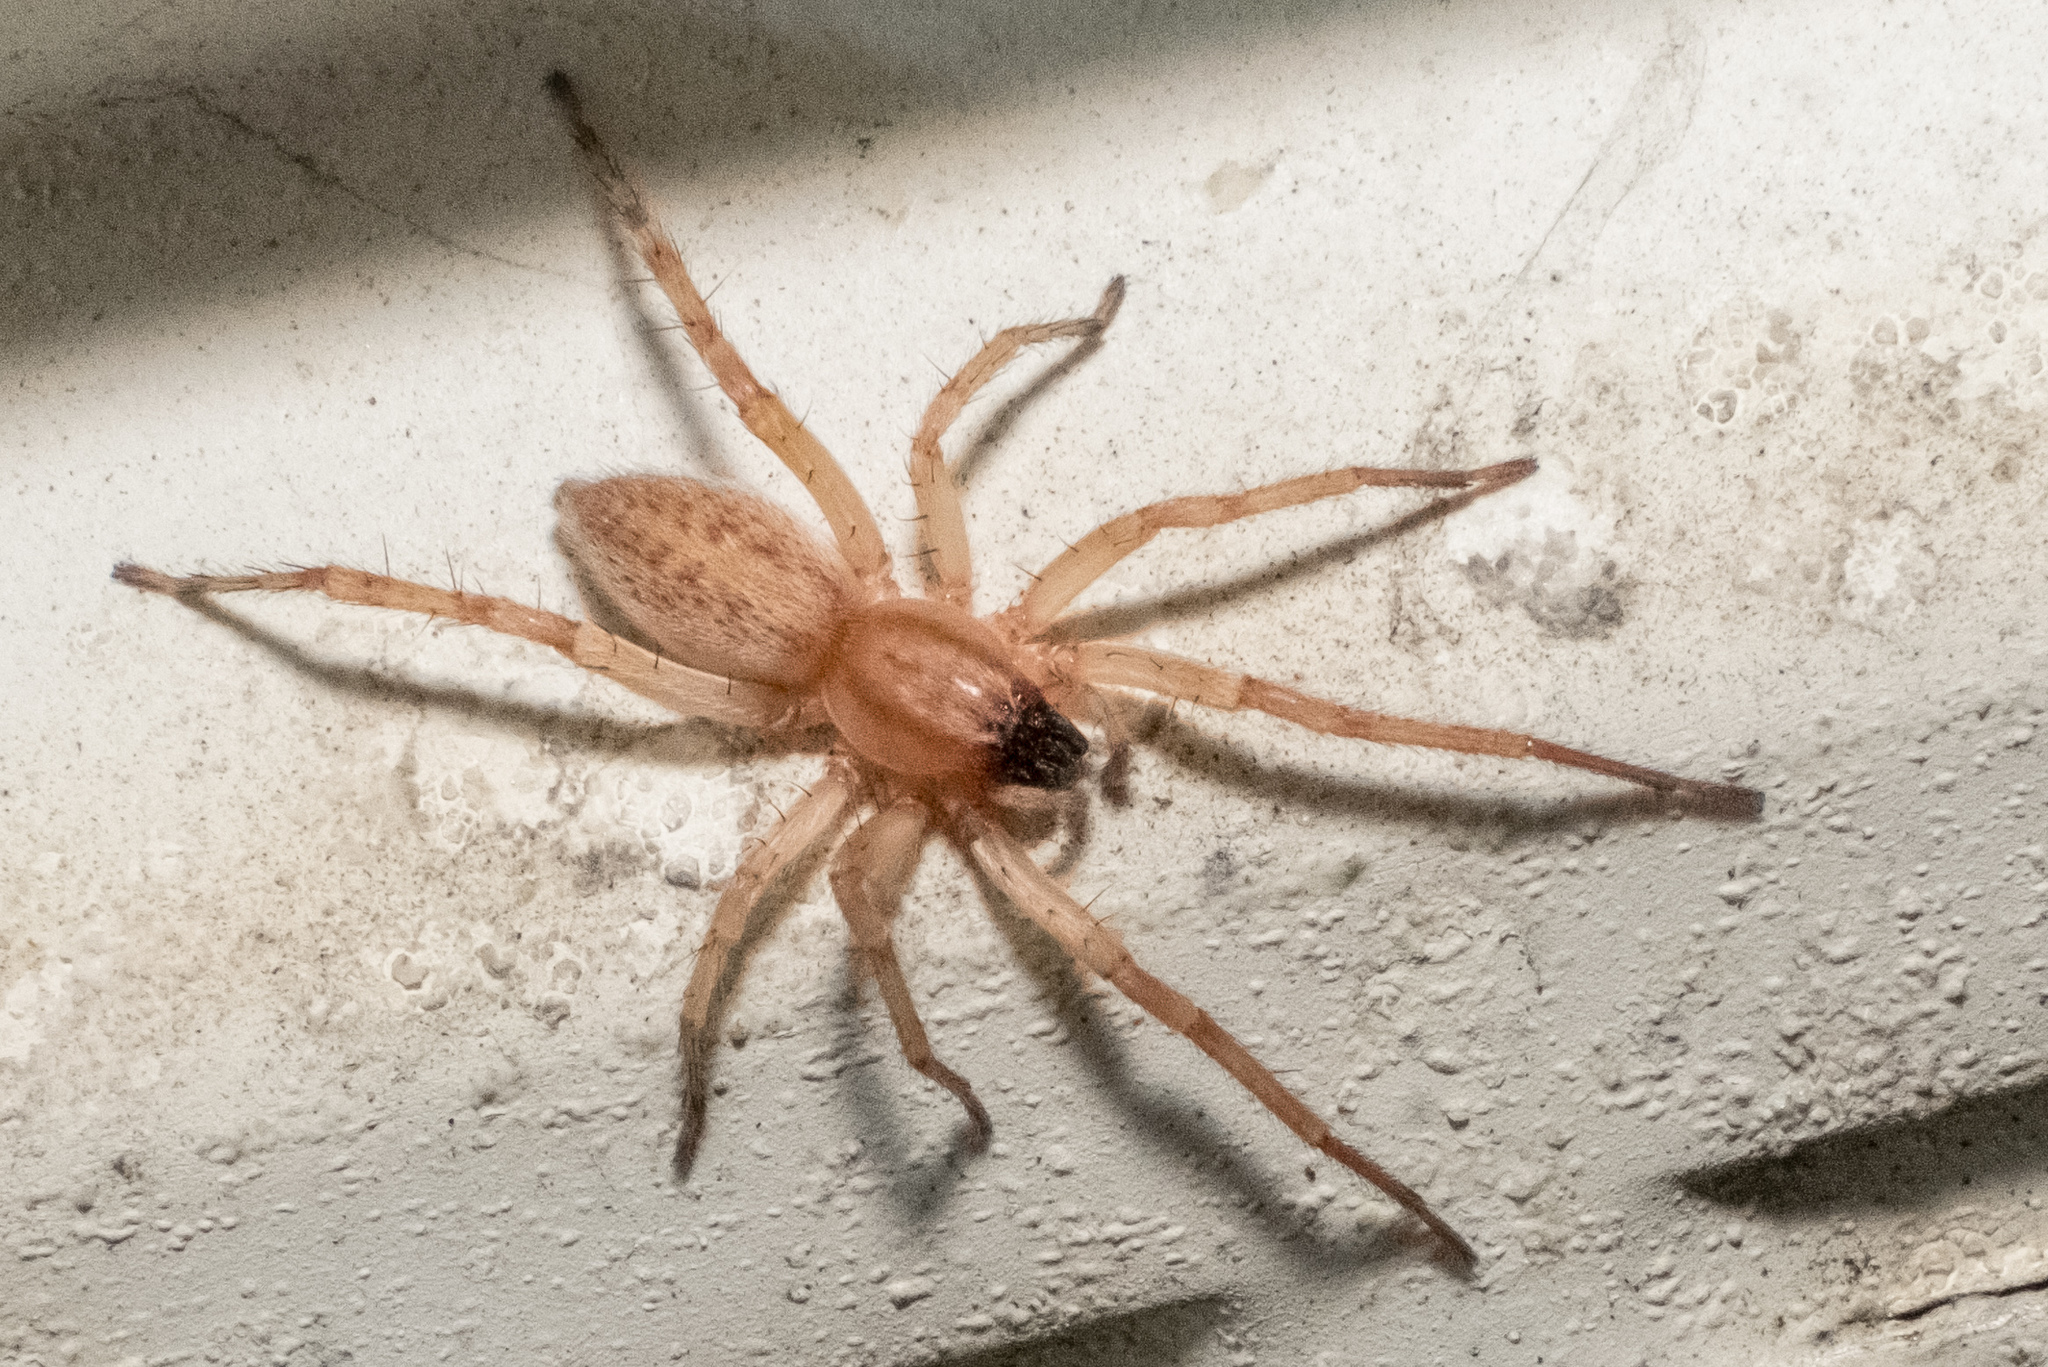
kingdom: Animalia
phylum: Arthropoda
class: Arachnida
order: Araneae
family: Anyphaenidae
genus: Hibana
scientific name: Hibana gracilis
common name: Garden ghost spider
